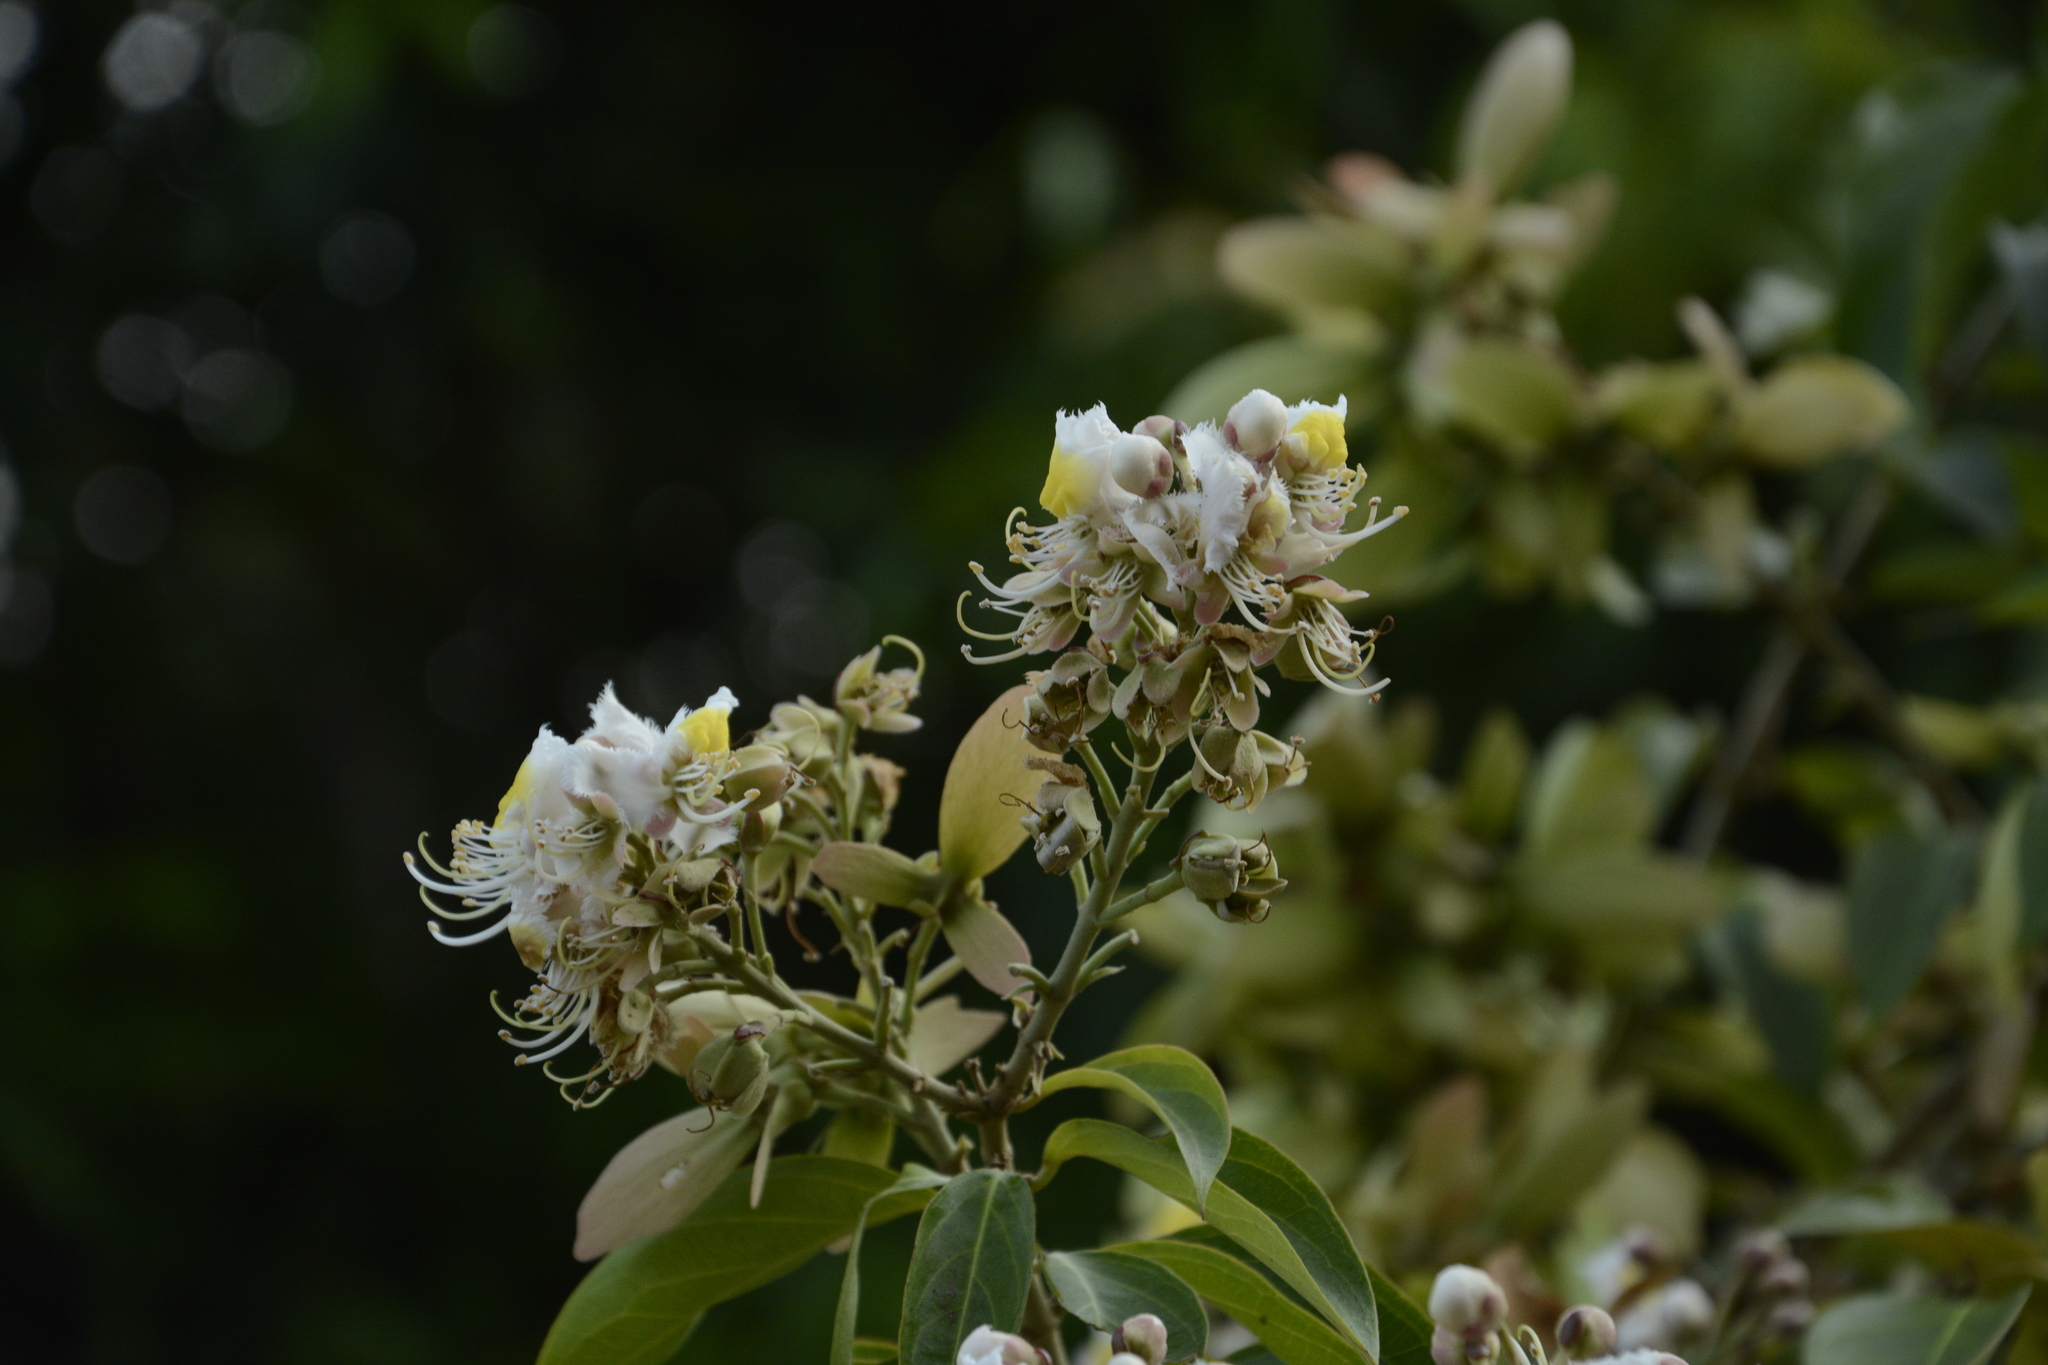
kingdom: Plantae
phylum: Tracheophyta
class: Magnoliopsida
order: Malpighiales
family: Malpighiaceae
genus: Hiptage
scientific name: Hiptage benghalensis
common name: Hiptage
